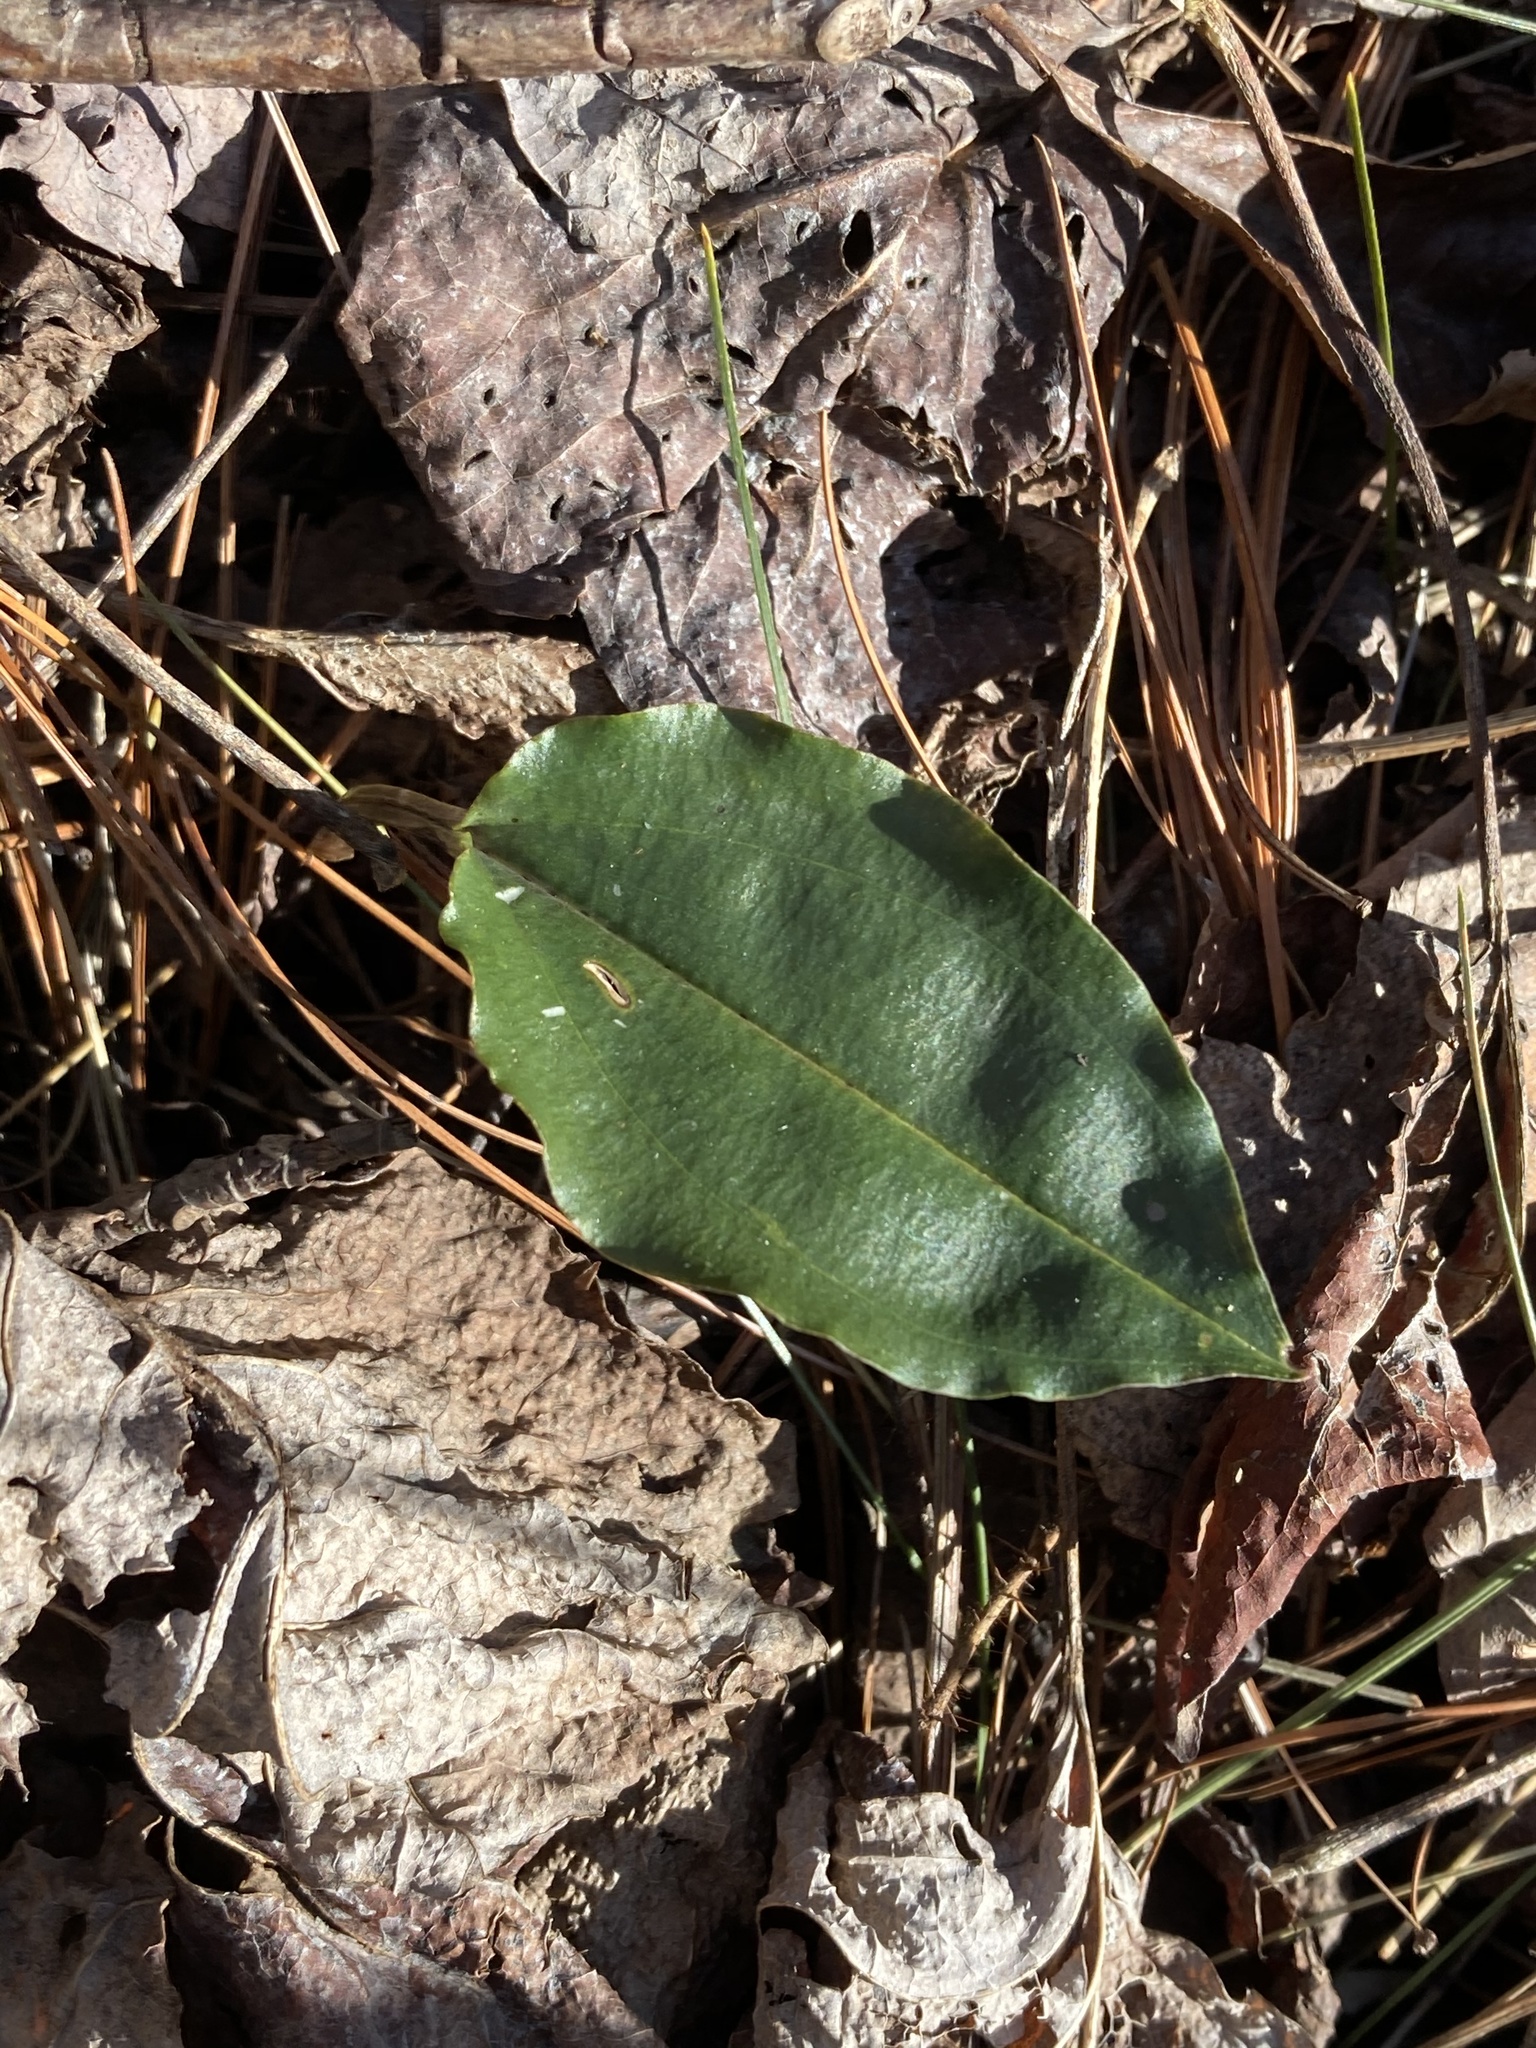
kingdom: Plantae
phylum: Tracheophyta
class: Liliopsida
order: Asparagales
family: Orchidaceae
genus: Tipularia
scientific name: Tipularia discolor
